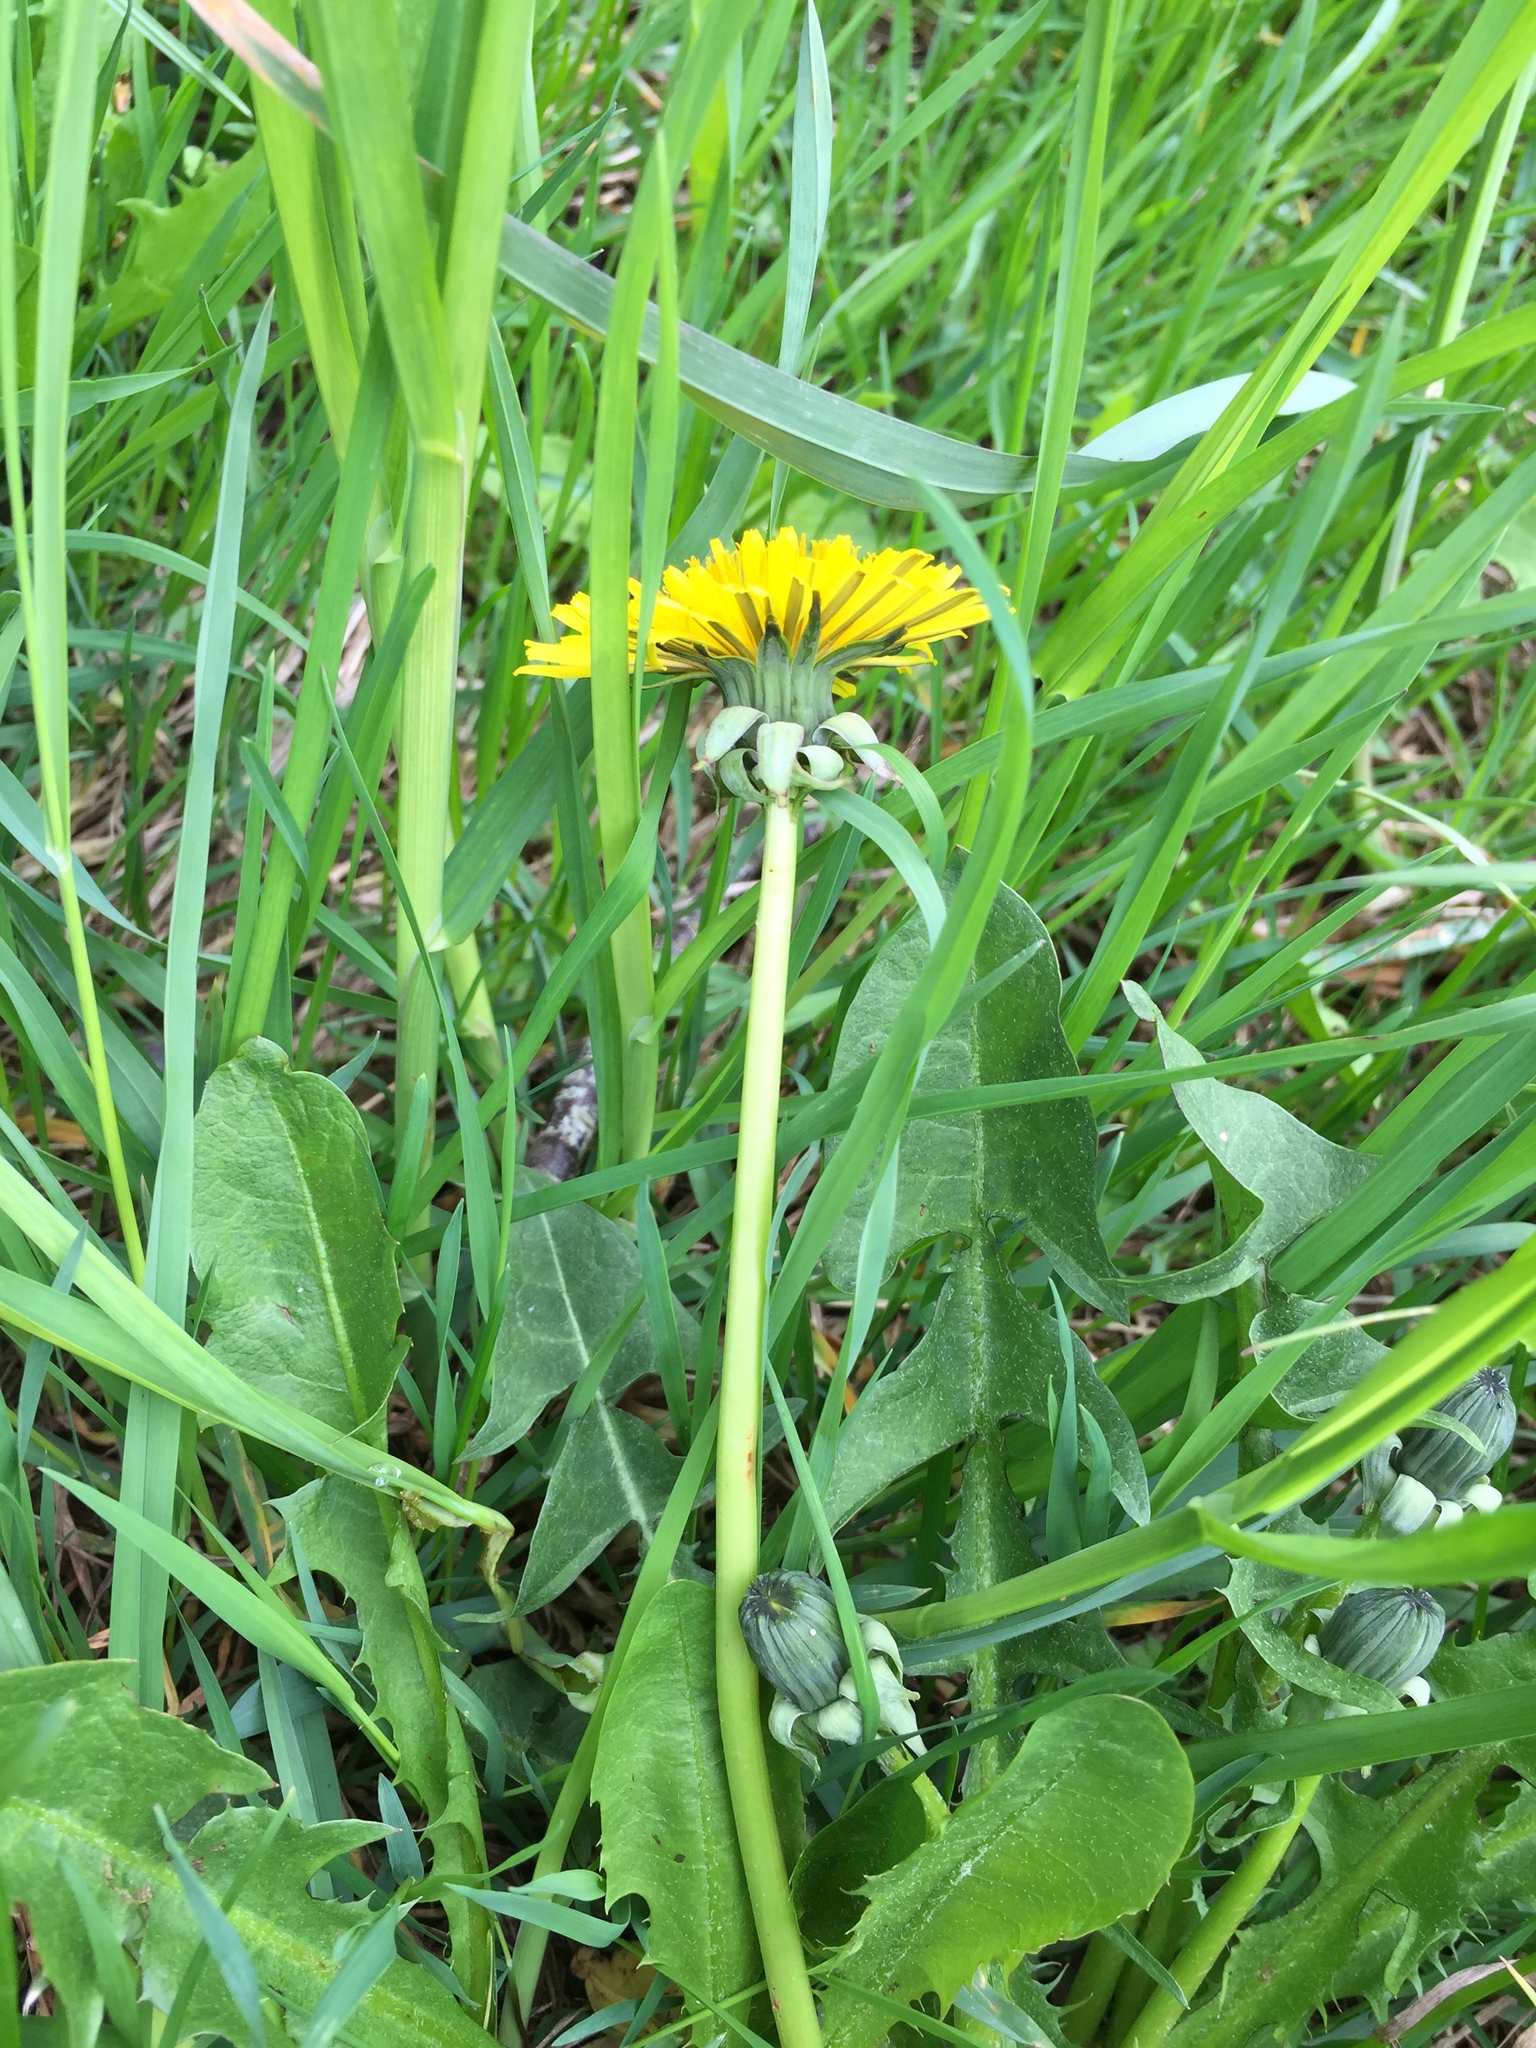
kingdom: Plantae
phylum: Tracheophyta
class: Magnoliopsida
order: Asterales
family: Asteraceae
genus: Taraxacum
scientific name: Taraxacum pallidipes
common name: Grey-bracted dandelion
